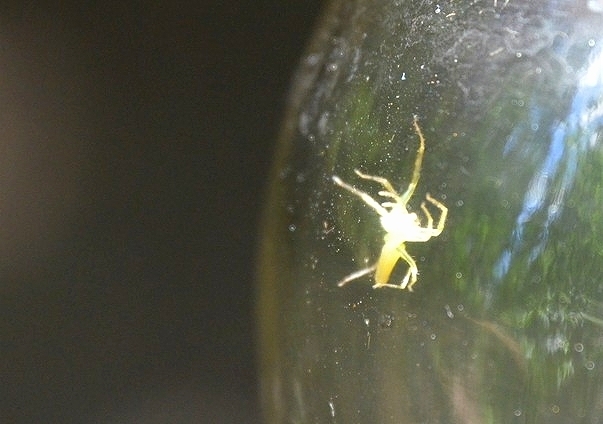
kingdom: Animalia
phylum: Arthropoda
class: Arachnida
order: Araneae
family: Salticidae
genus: Lyssomanes
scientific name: Lyssomanes pauper
